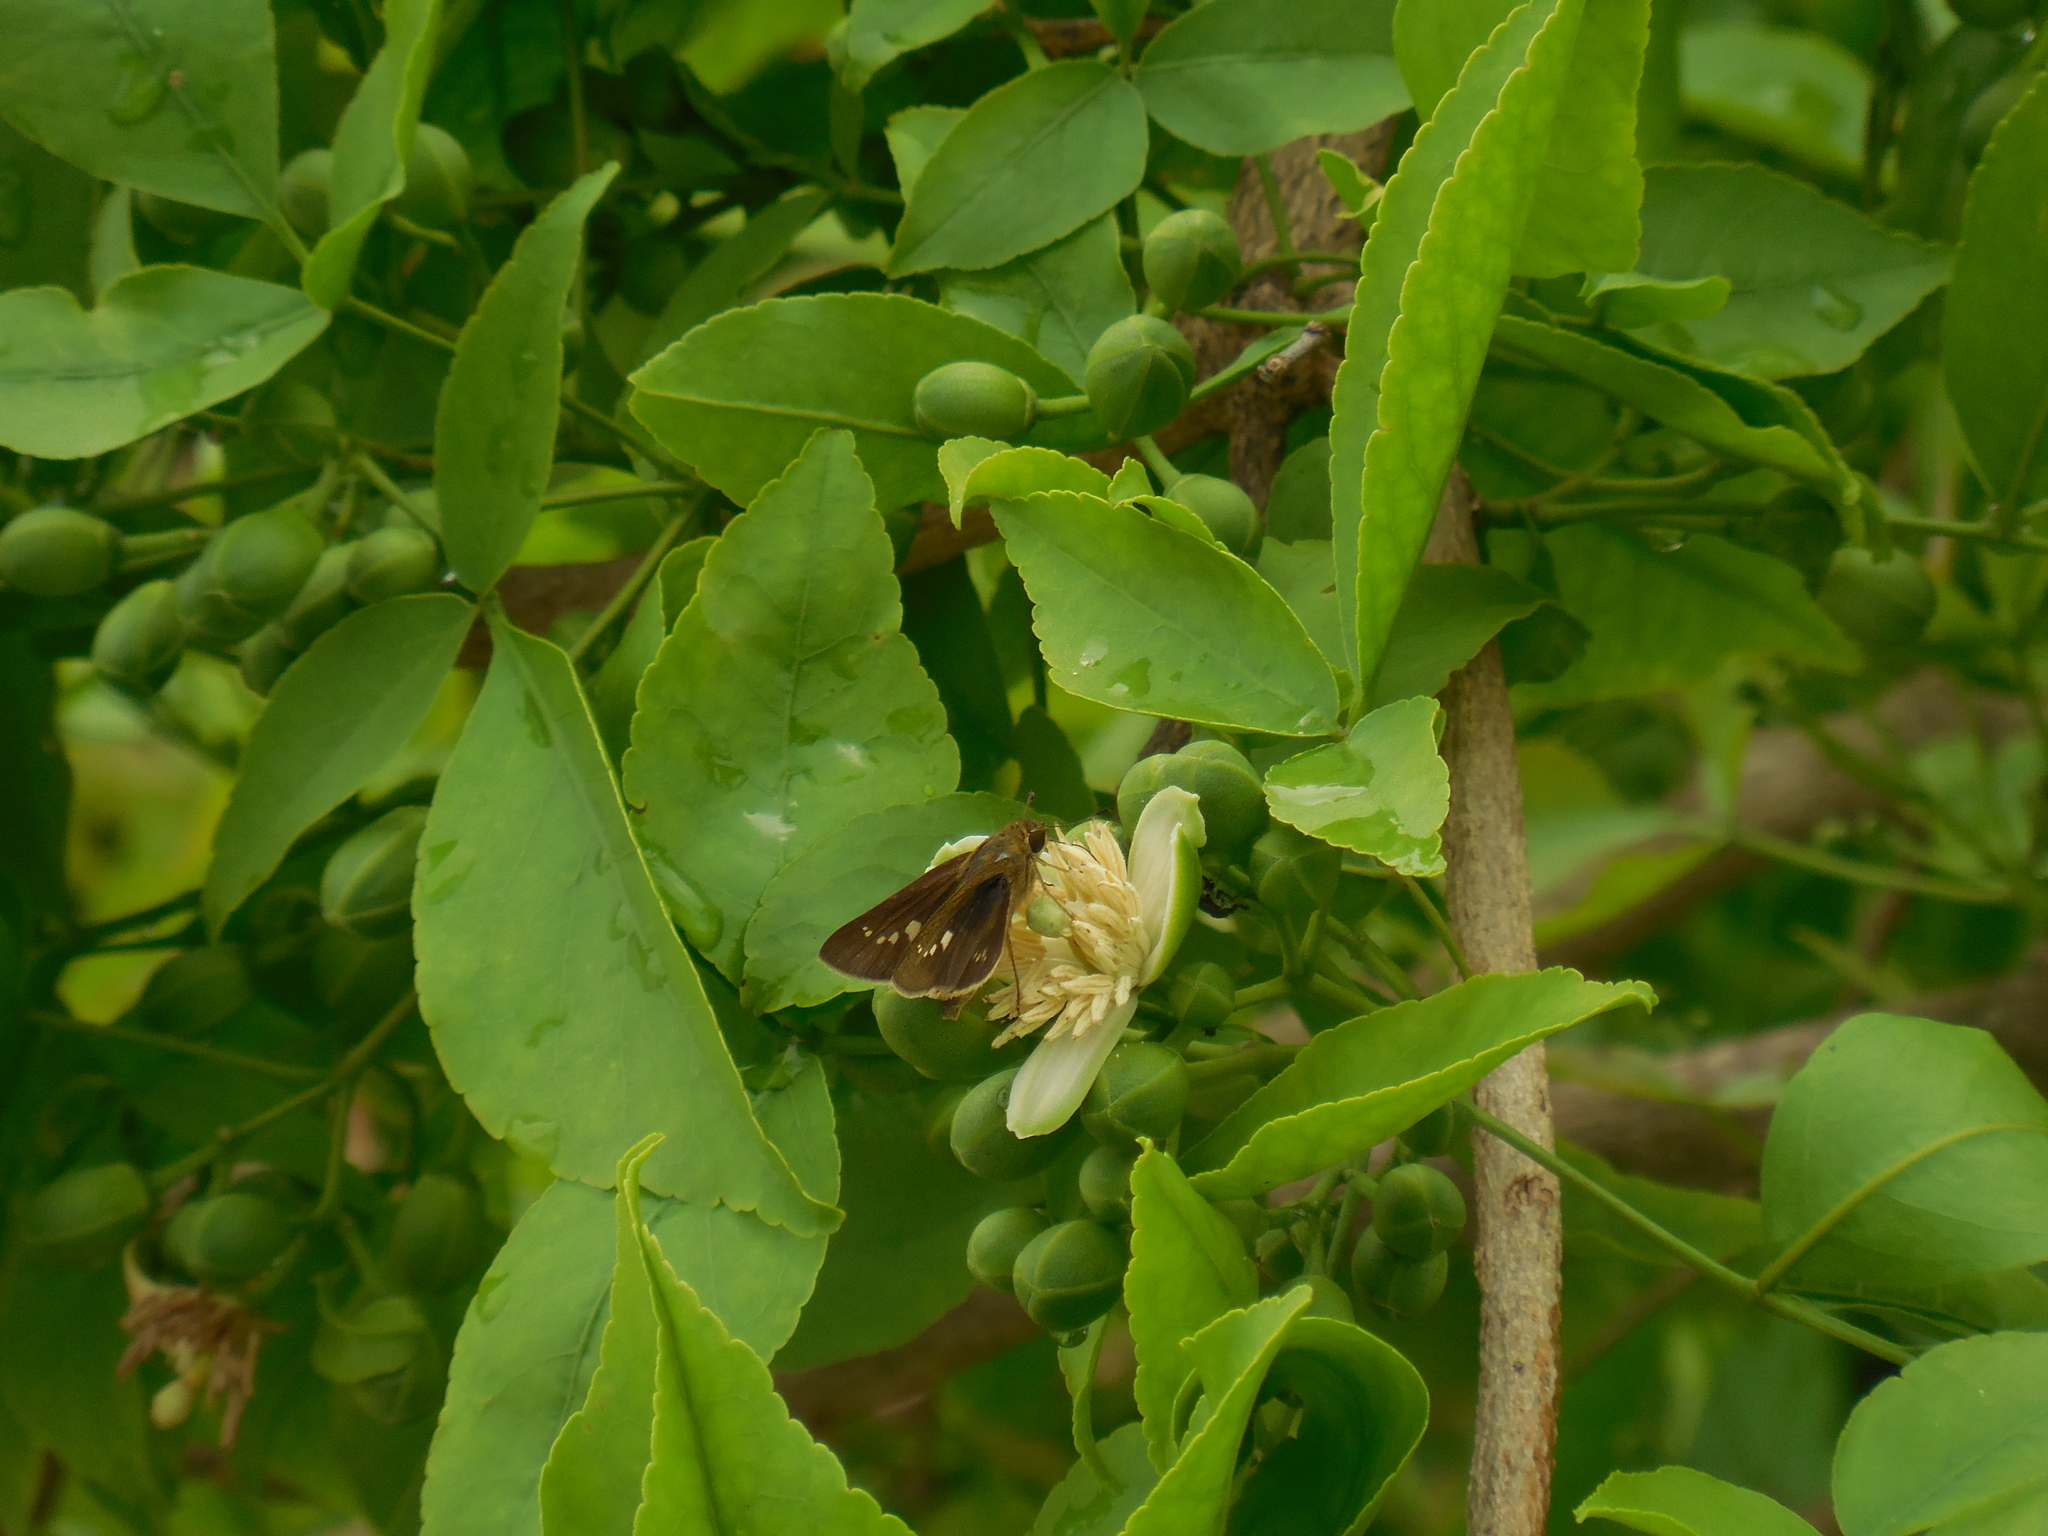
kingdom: Animalia
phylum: Arthropoda
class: Insecta
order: Lepidoptera
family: Hesperiidae
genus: Borbo
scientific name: Borbo cinnara
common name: Formosan swift
